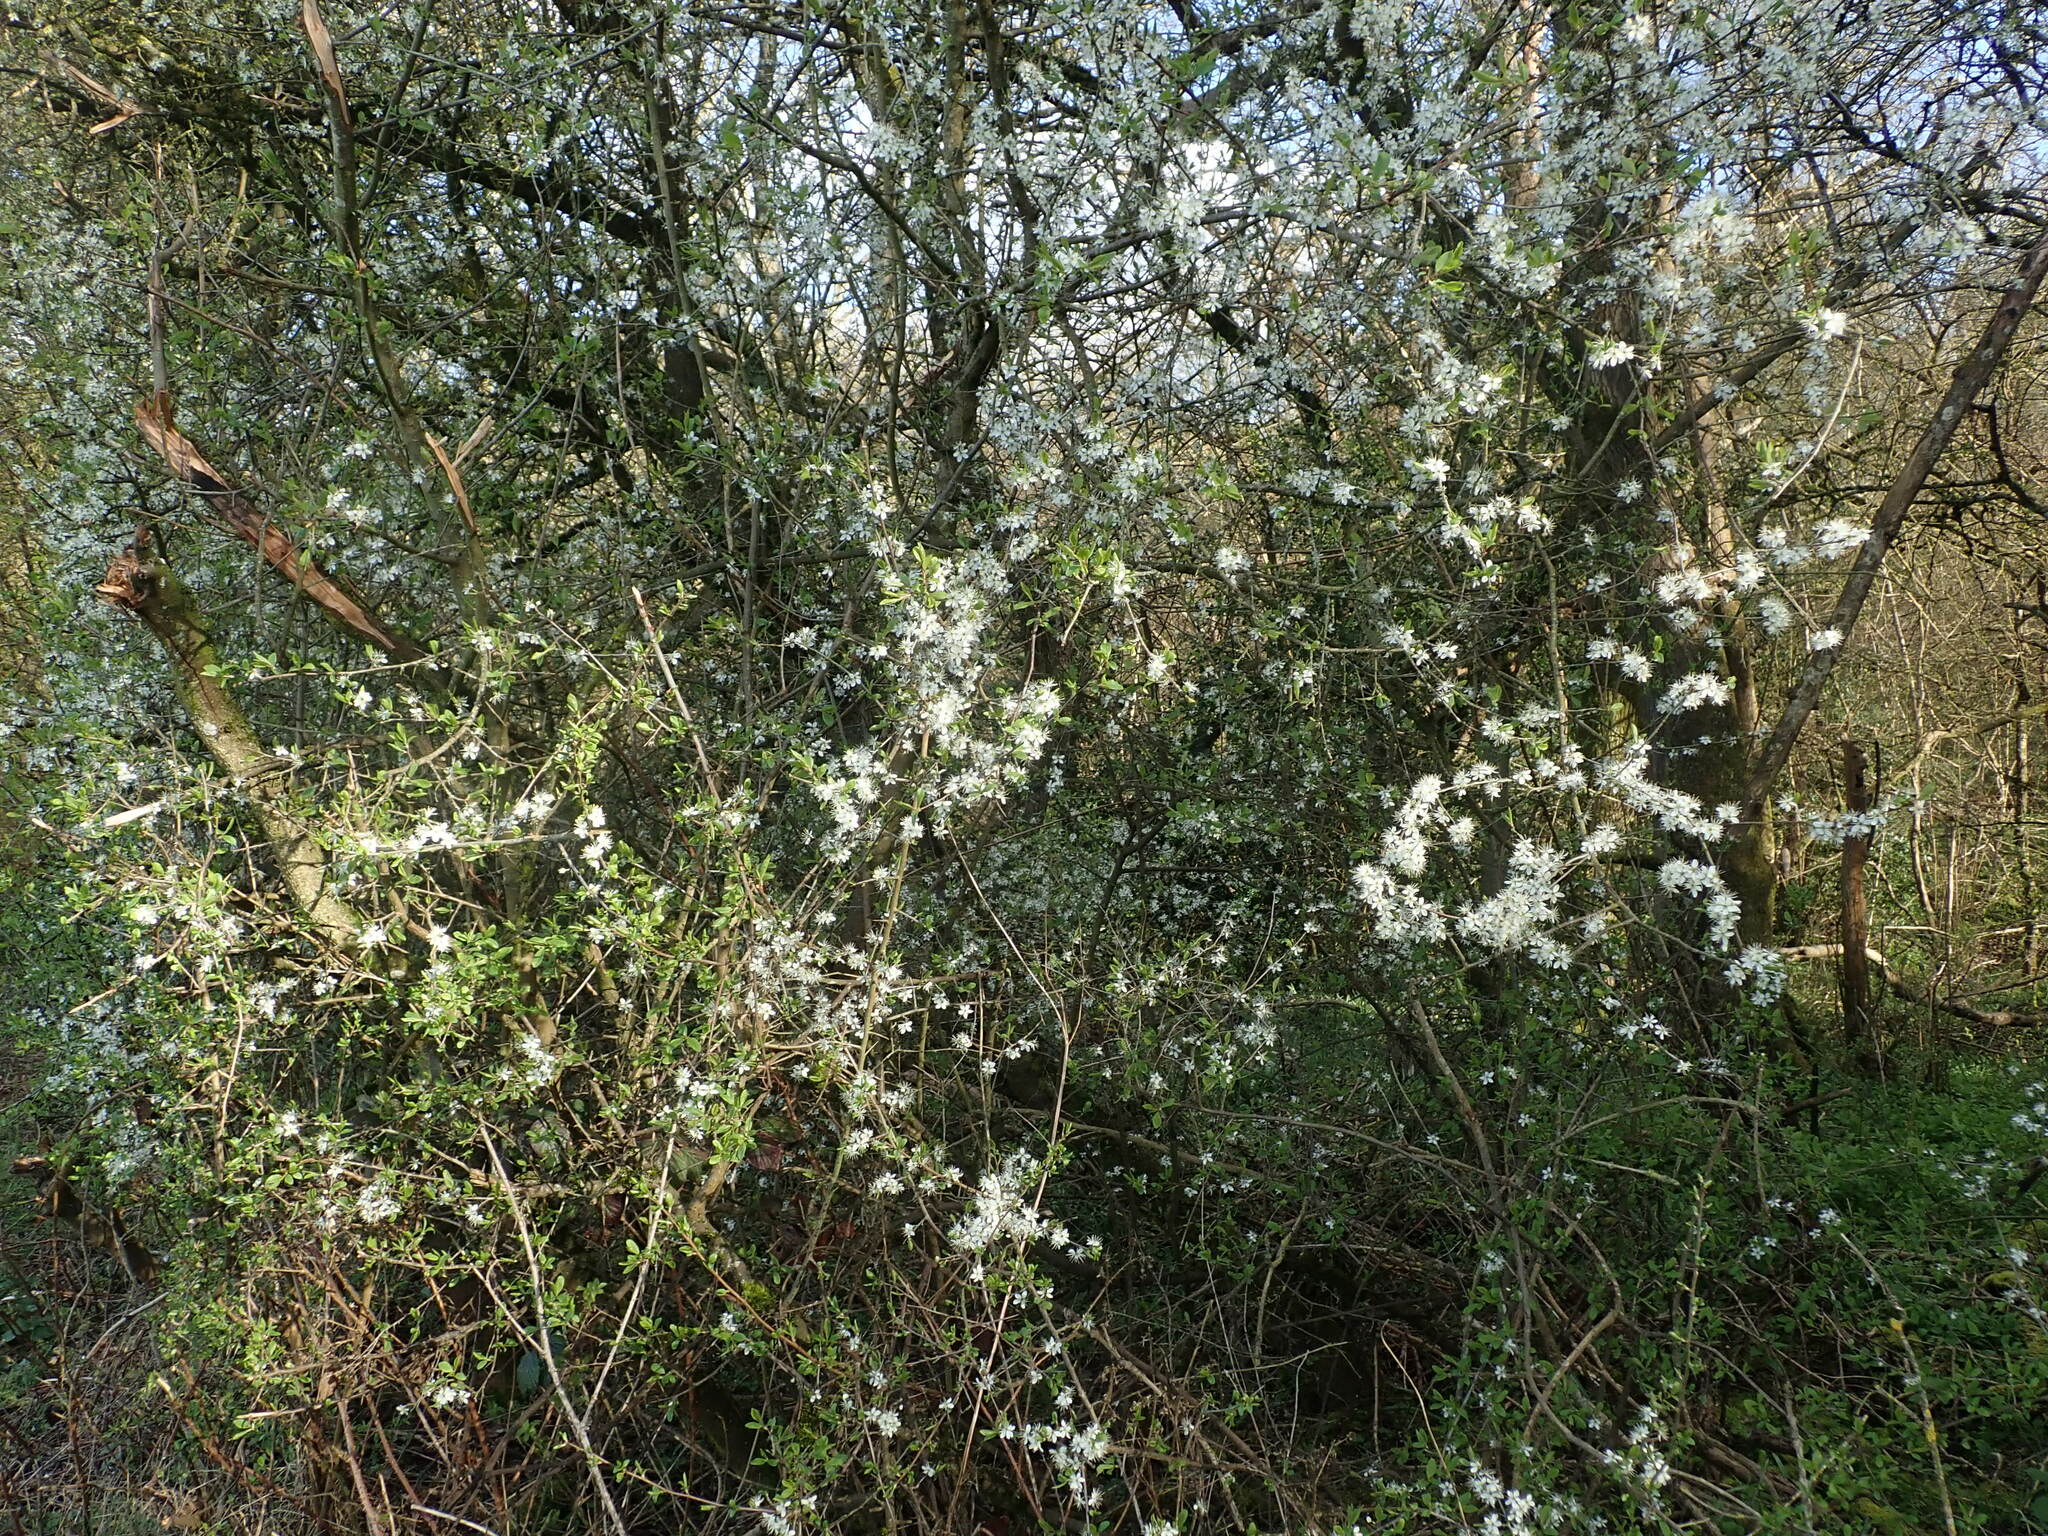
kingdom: Plantae
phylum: Tracheophyta
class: Magnoliopsida
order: Rosales
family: Rosaceae
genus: Prunus
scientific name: Prunus spinosa
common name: Blackthorn
